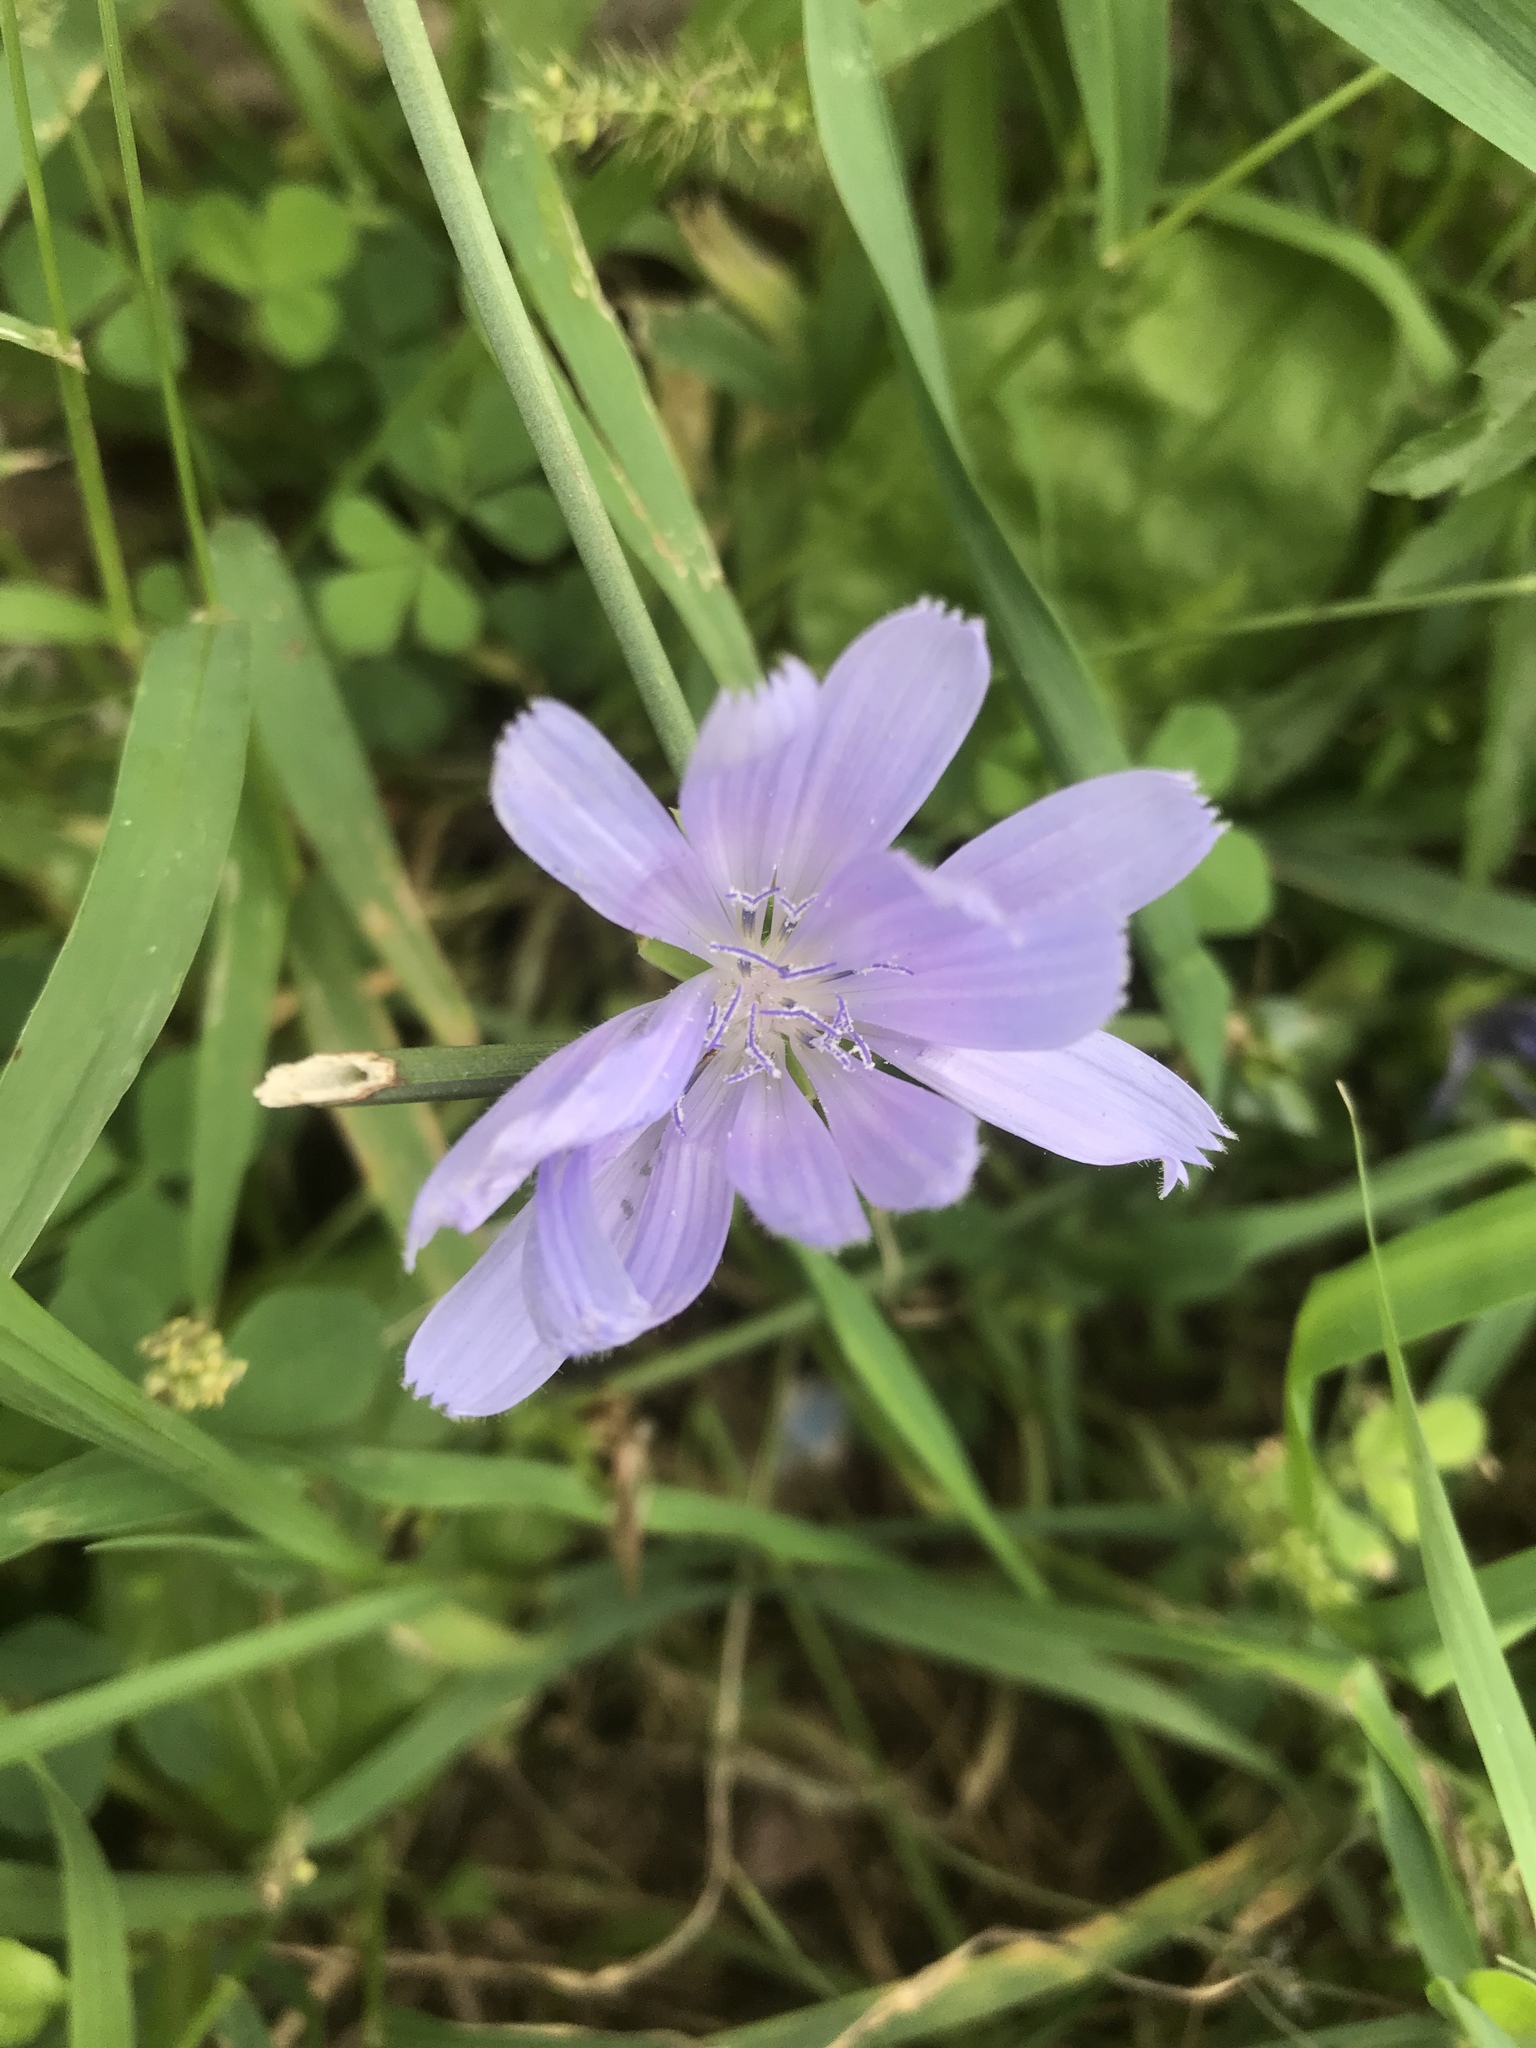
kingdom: Plantae
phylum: Tracheophyta
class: Magnoliopsida
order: Asterales
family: Asteraceae
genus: Cichorium
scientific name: Cichorium intybus
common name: Chicory
